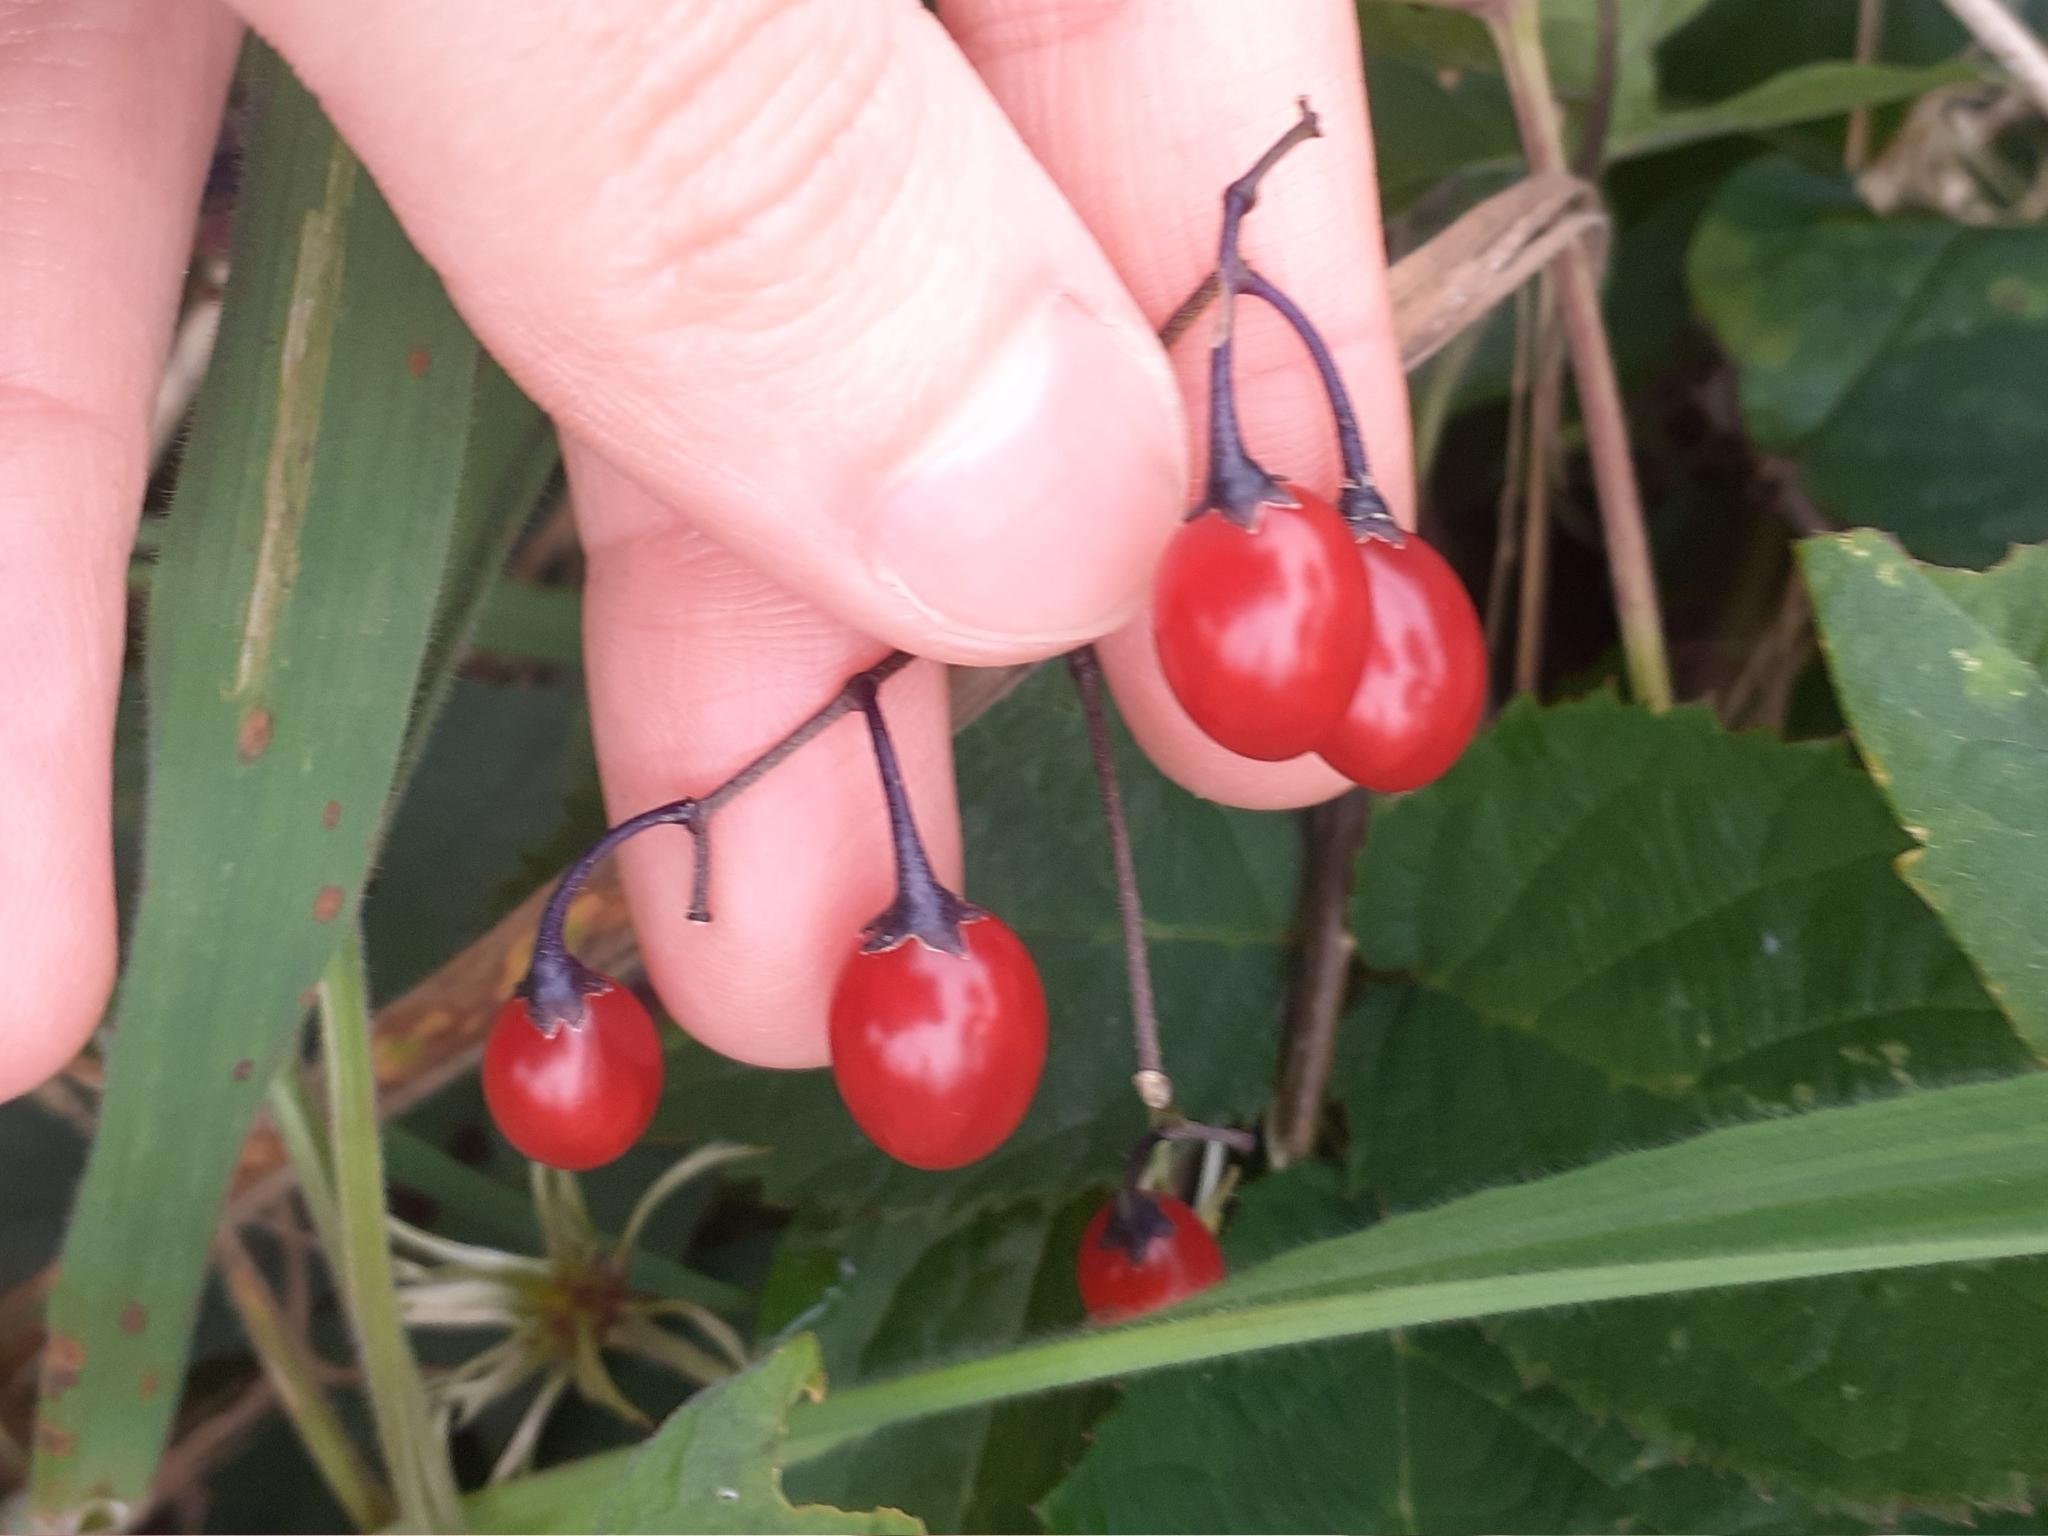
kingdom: Plantae
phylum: Tracheophyta
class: Magnoliopsida
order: Solanales
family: Solanaceae
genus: Solanum
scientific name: Solanum dulcamara
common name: Climbing nightshade
